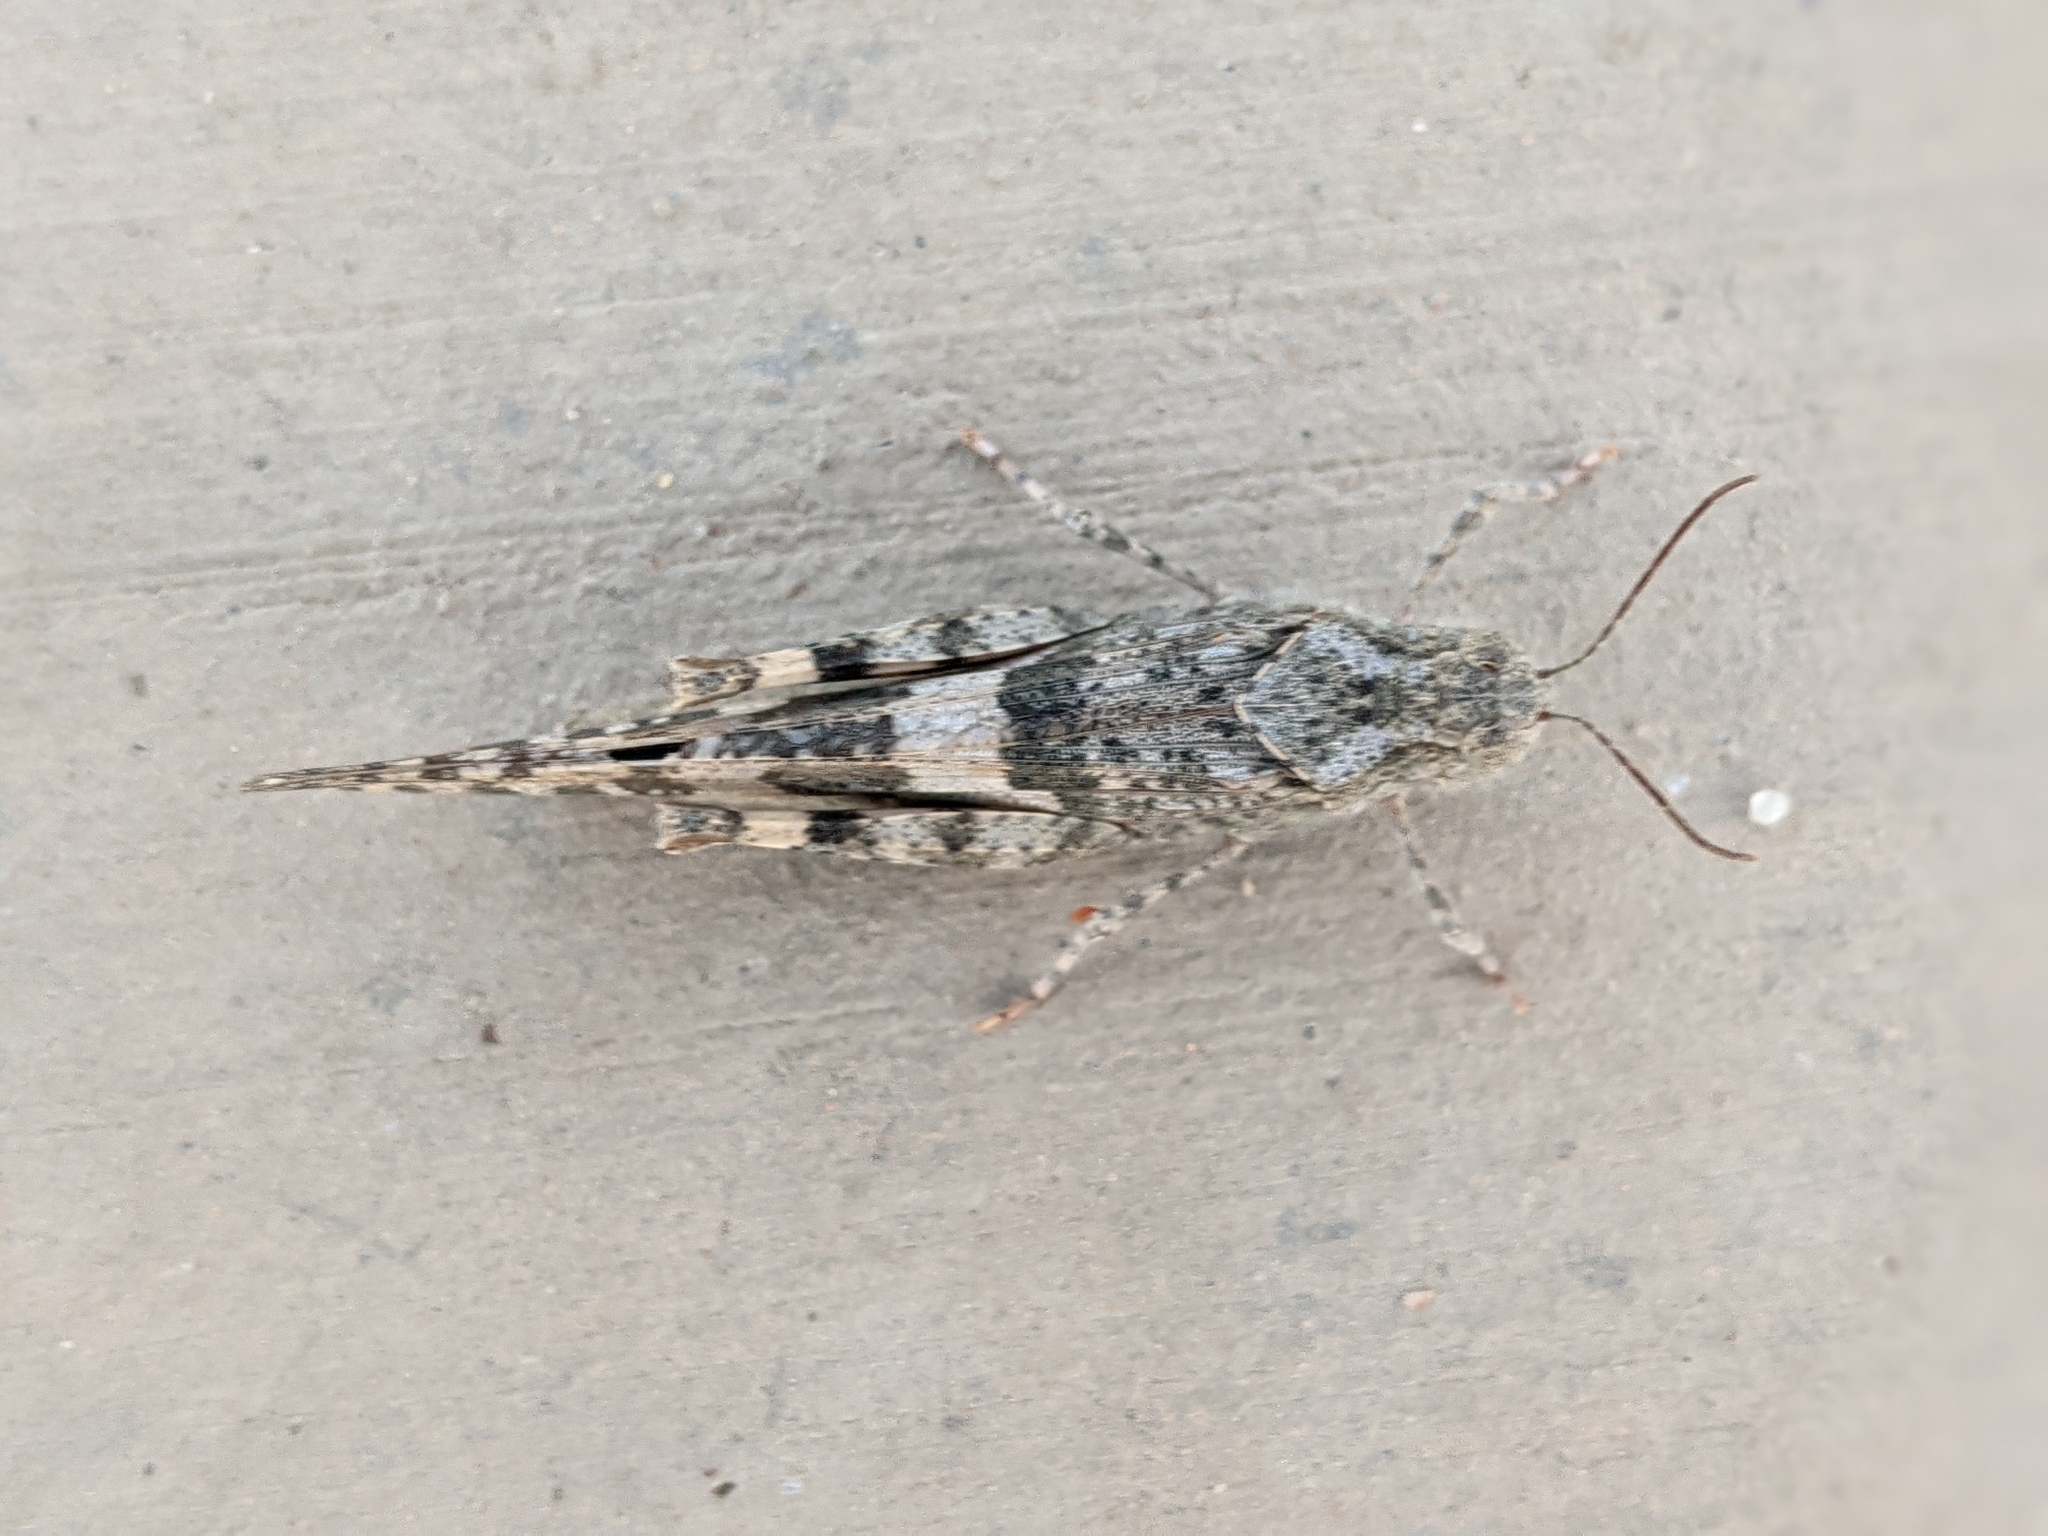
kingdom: Animalia
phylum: Arthropoda
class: Insecta
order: Orthoptera
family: Acrididae
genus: Trimerotropis
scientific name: Trimerotropis pallidipennis
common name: Pallid-winged grasshopper
